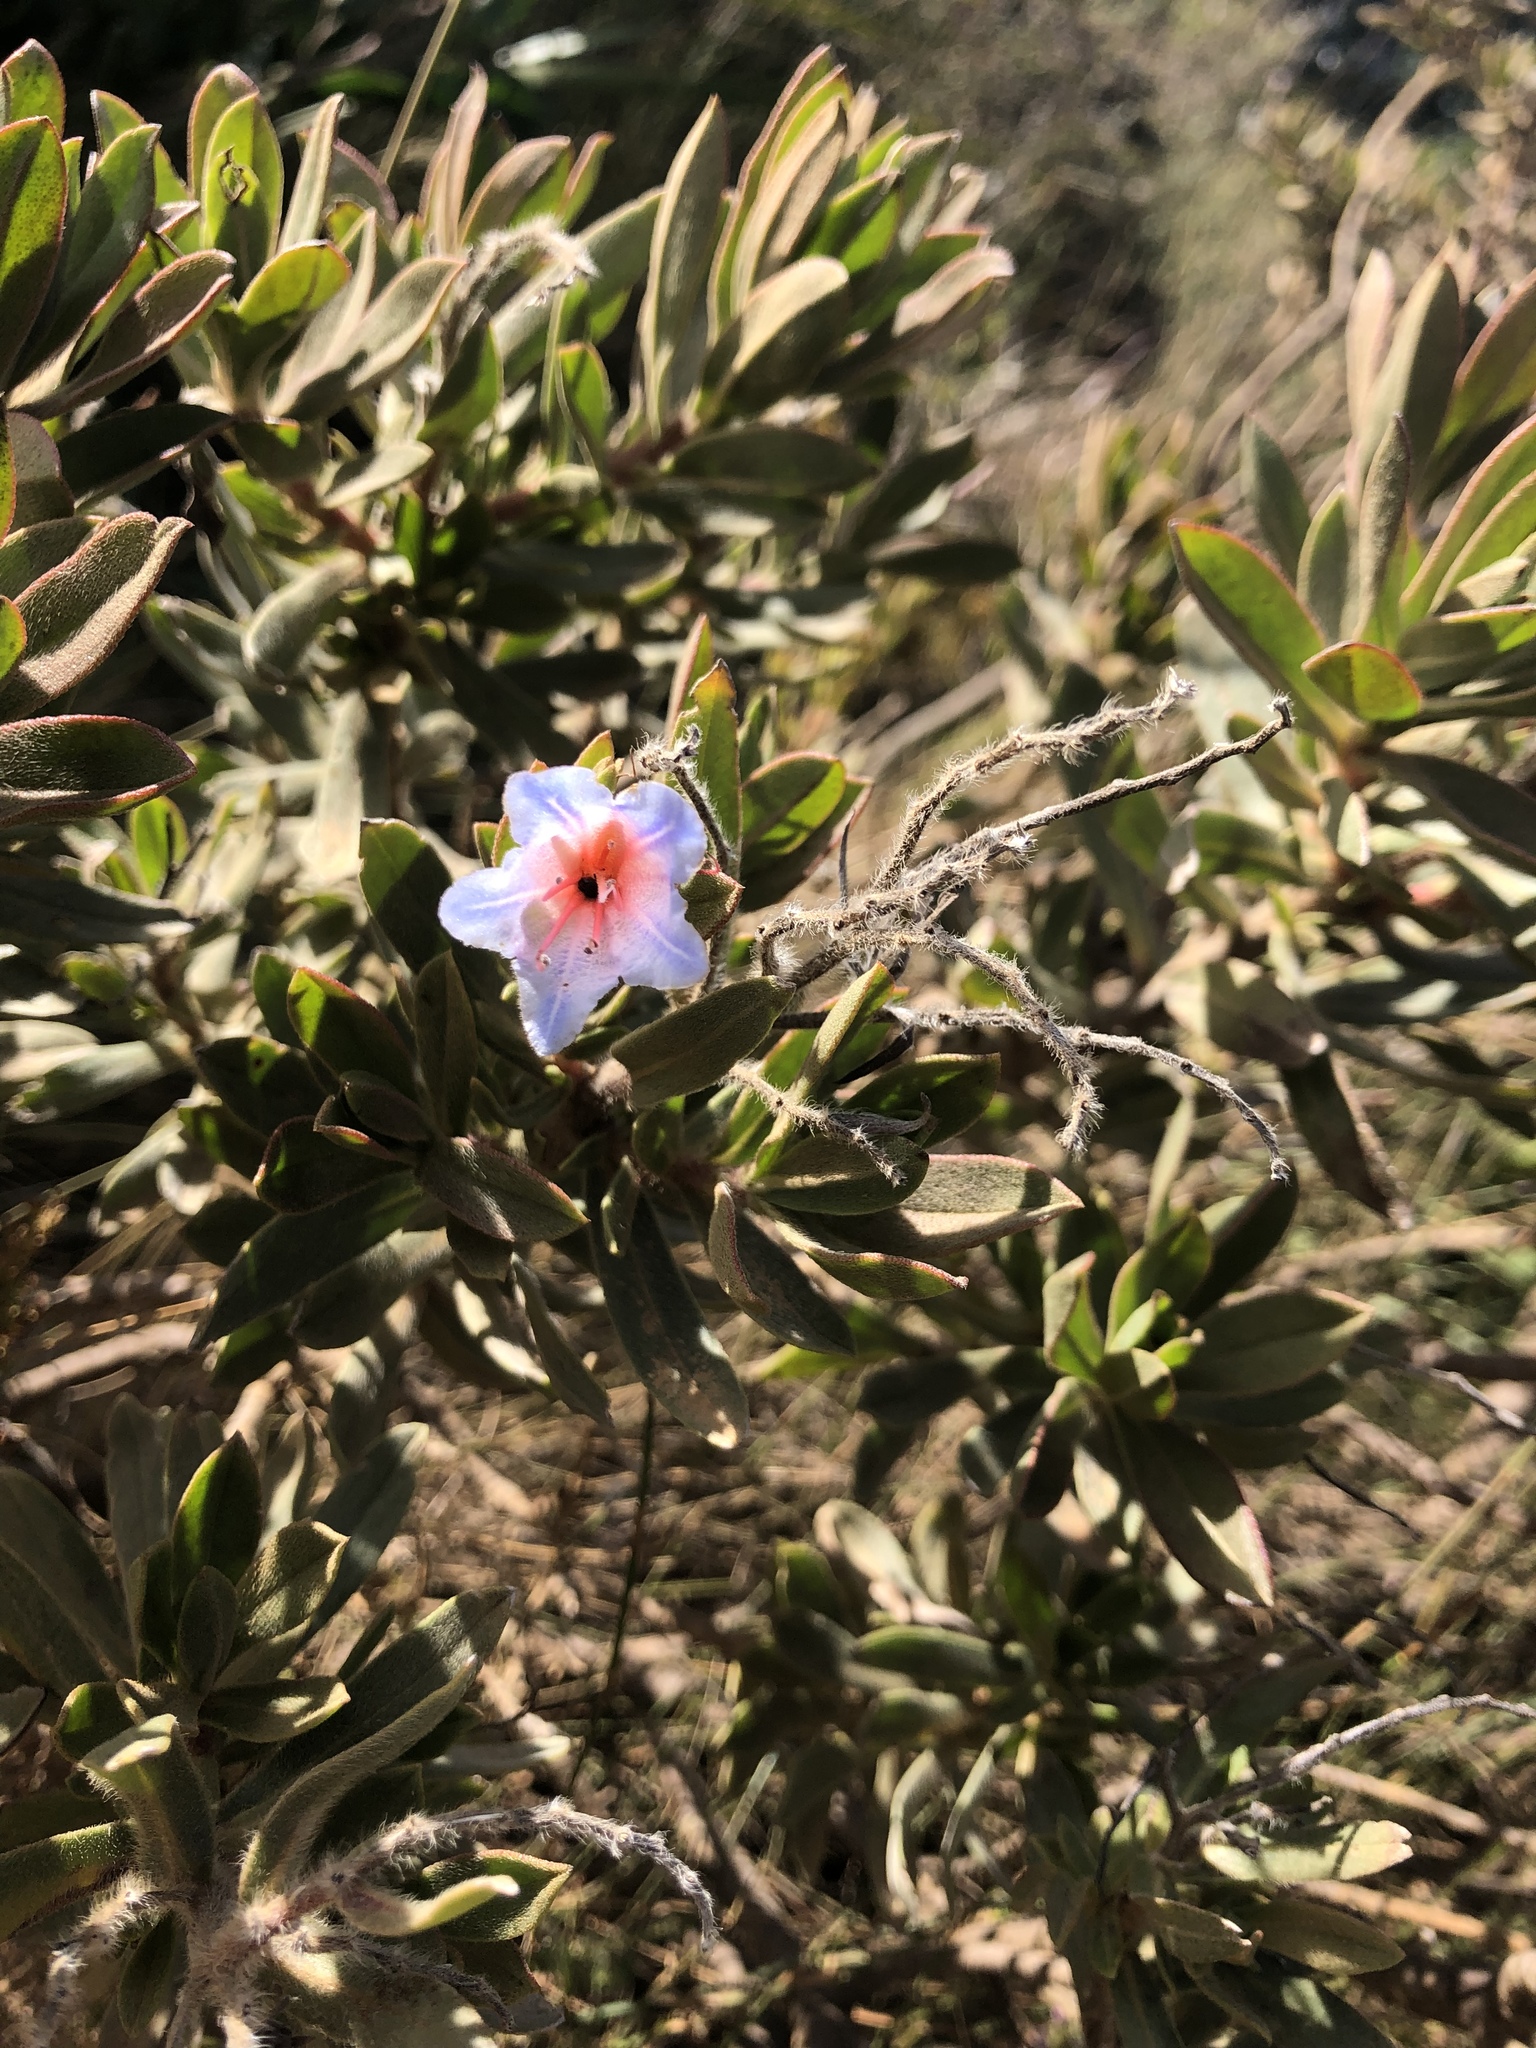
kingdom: Plantae
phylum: Tracheophyta
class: Magnoliopsida
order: Boraginales
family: Boraginaceae
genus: Lobostemon
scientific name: Lobostemon fruticosus
